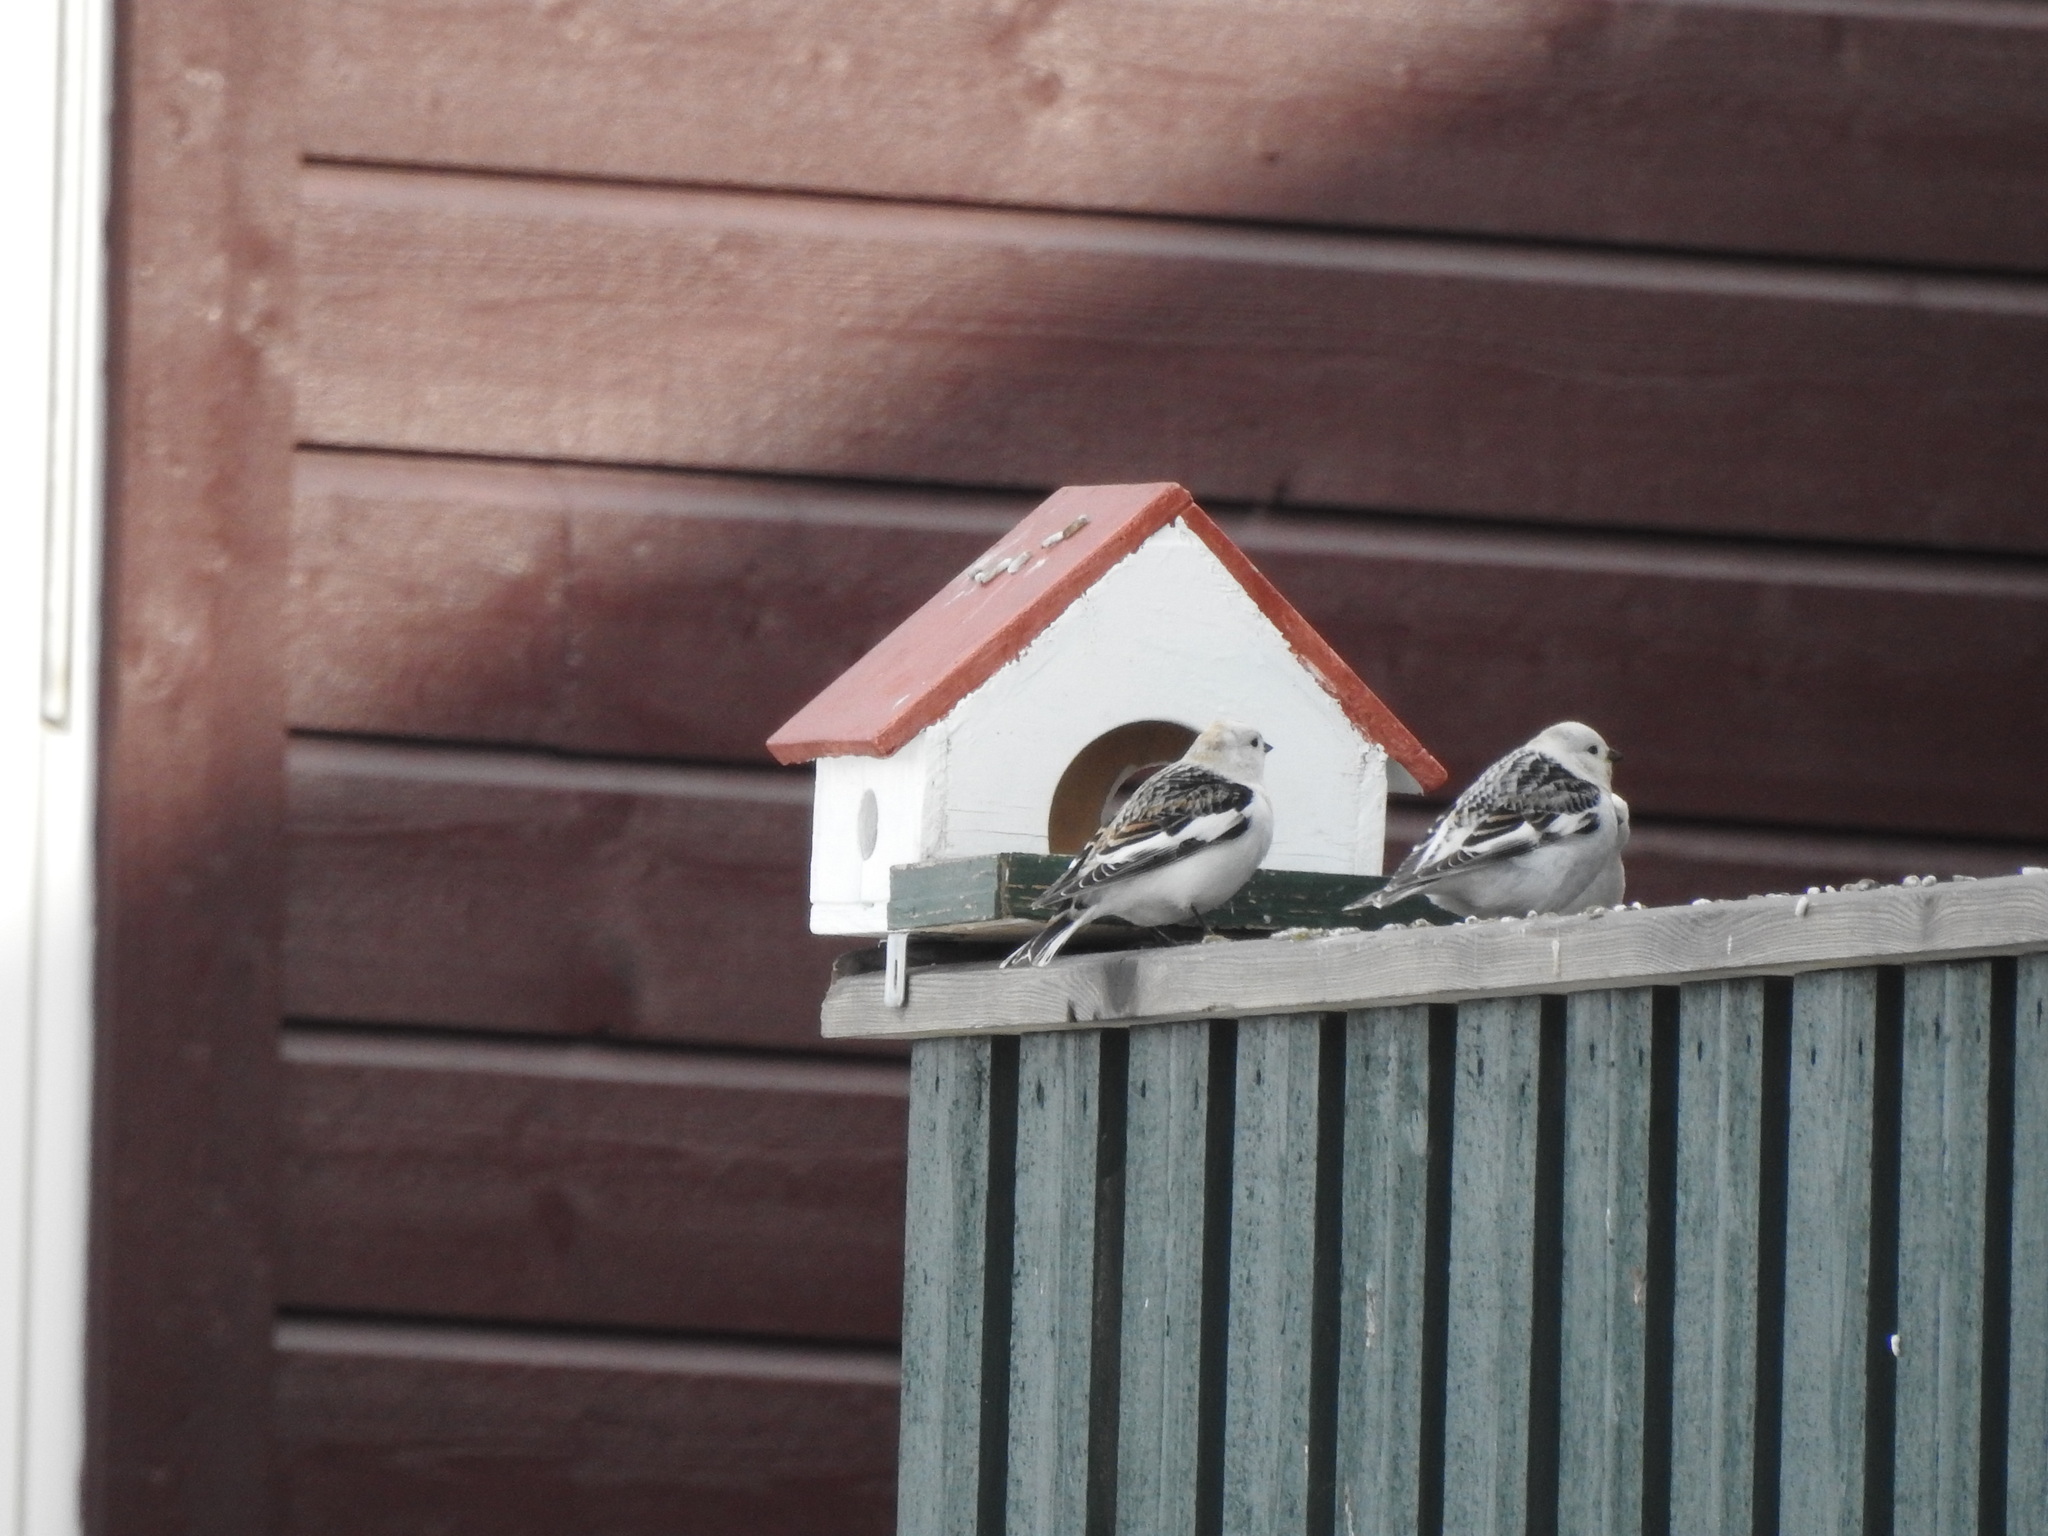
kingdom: Animalia
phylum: Chordata
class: Aves
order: Passeriformes
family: Calcariidae
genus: Plectrophenax
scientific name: Plectrophenax nivalis
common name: Snow bunting
